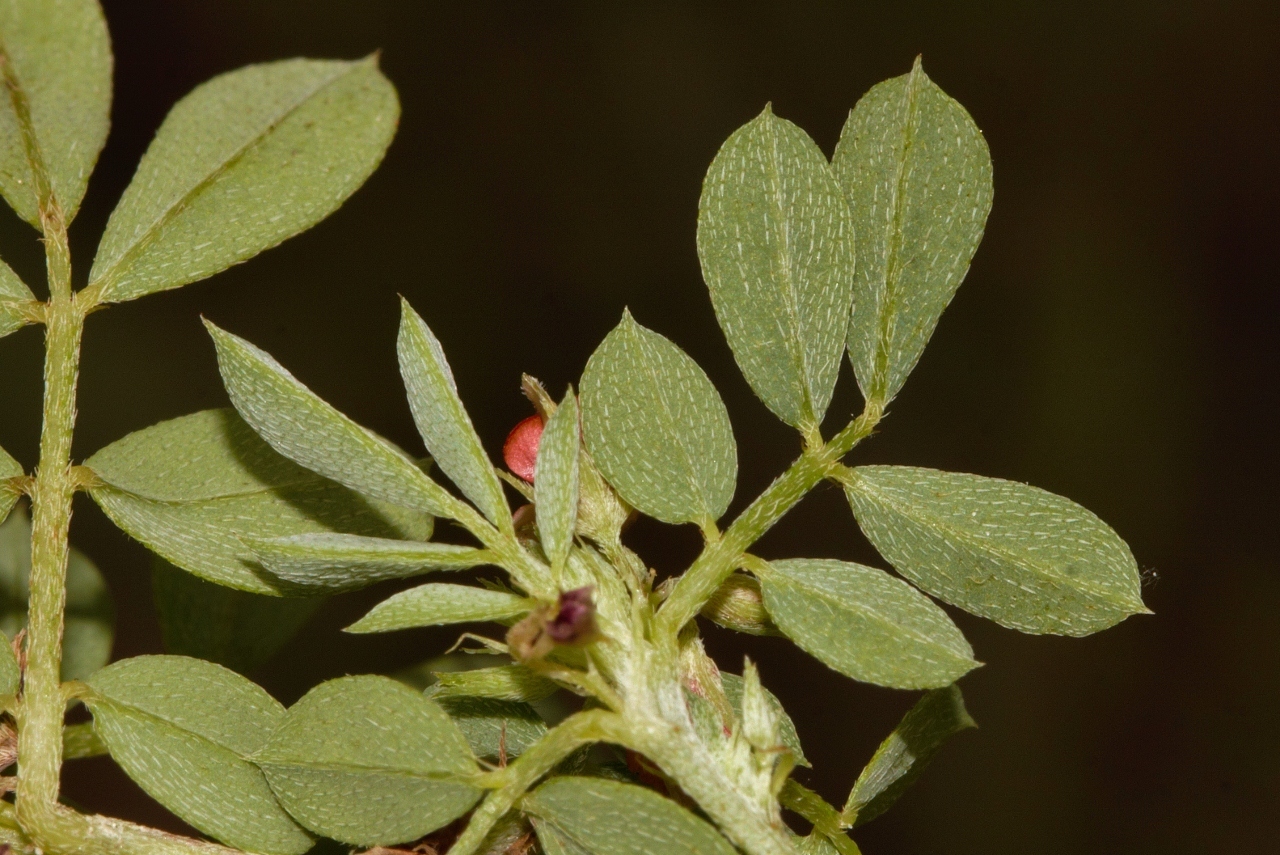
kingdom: Plantae
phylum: Tracheophyta
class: Magnoliopsida
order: Fabales
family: Fabaceae
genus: Indigofera
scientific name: Indigofera demissa
